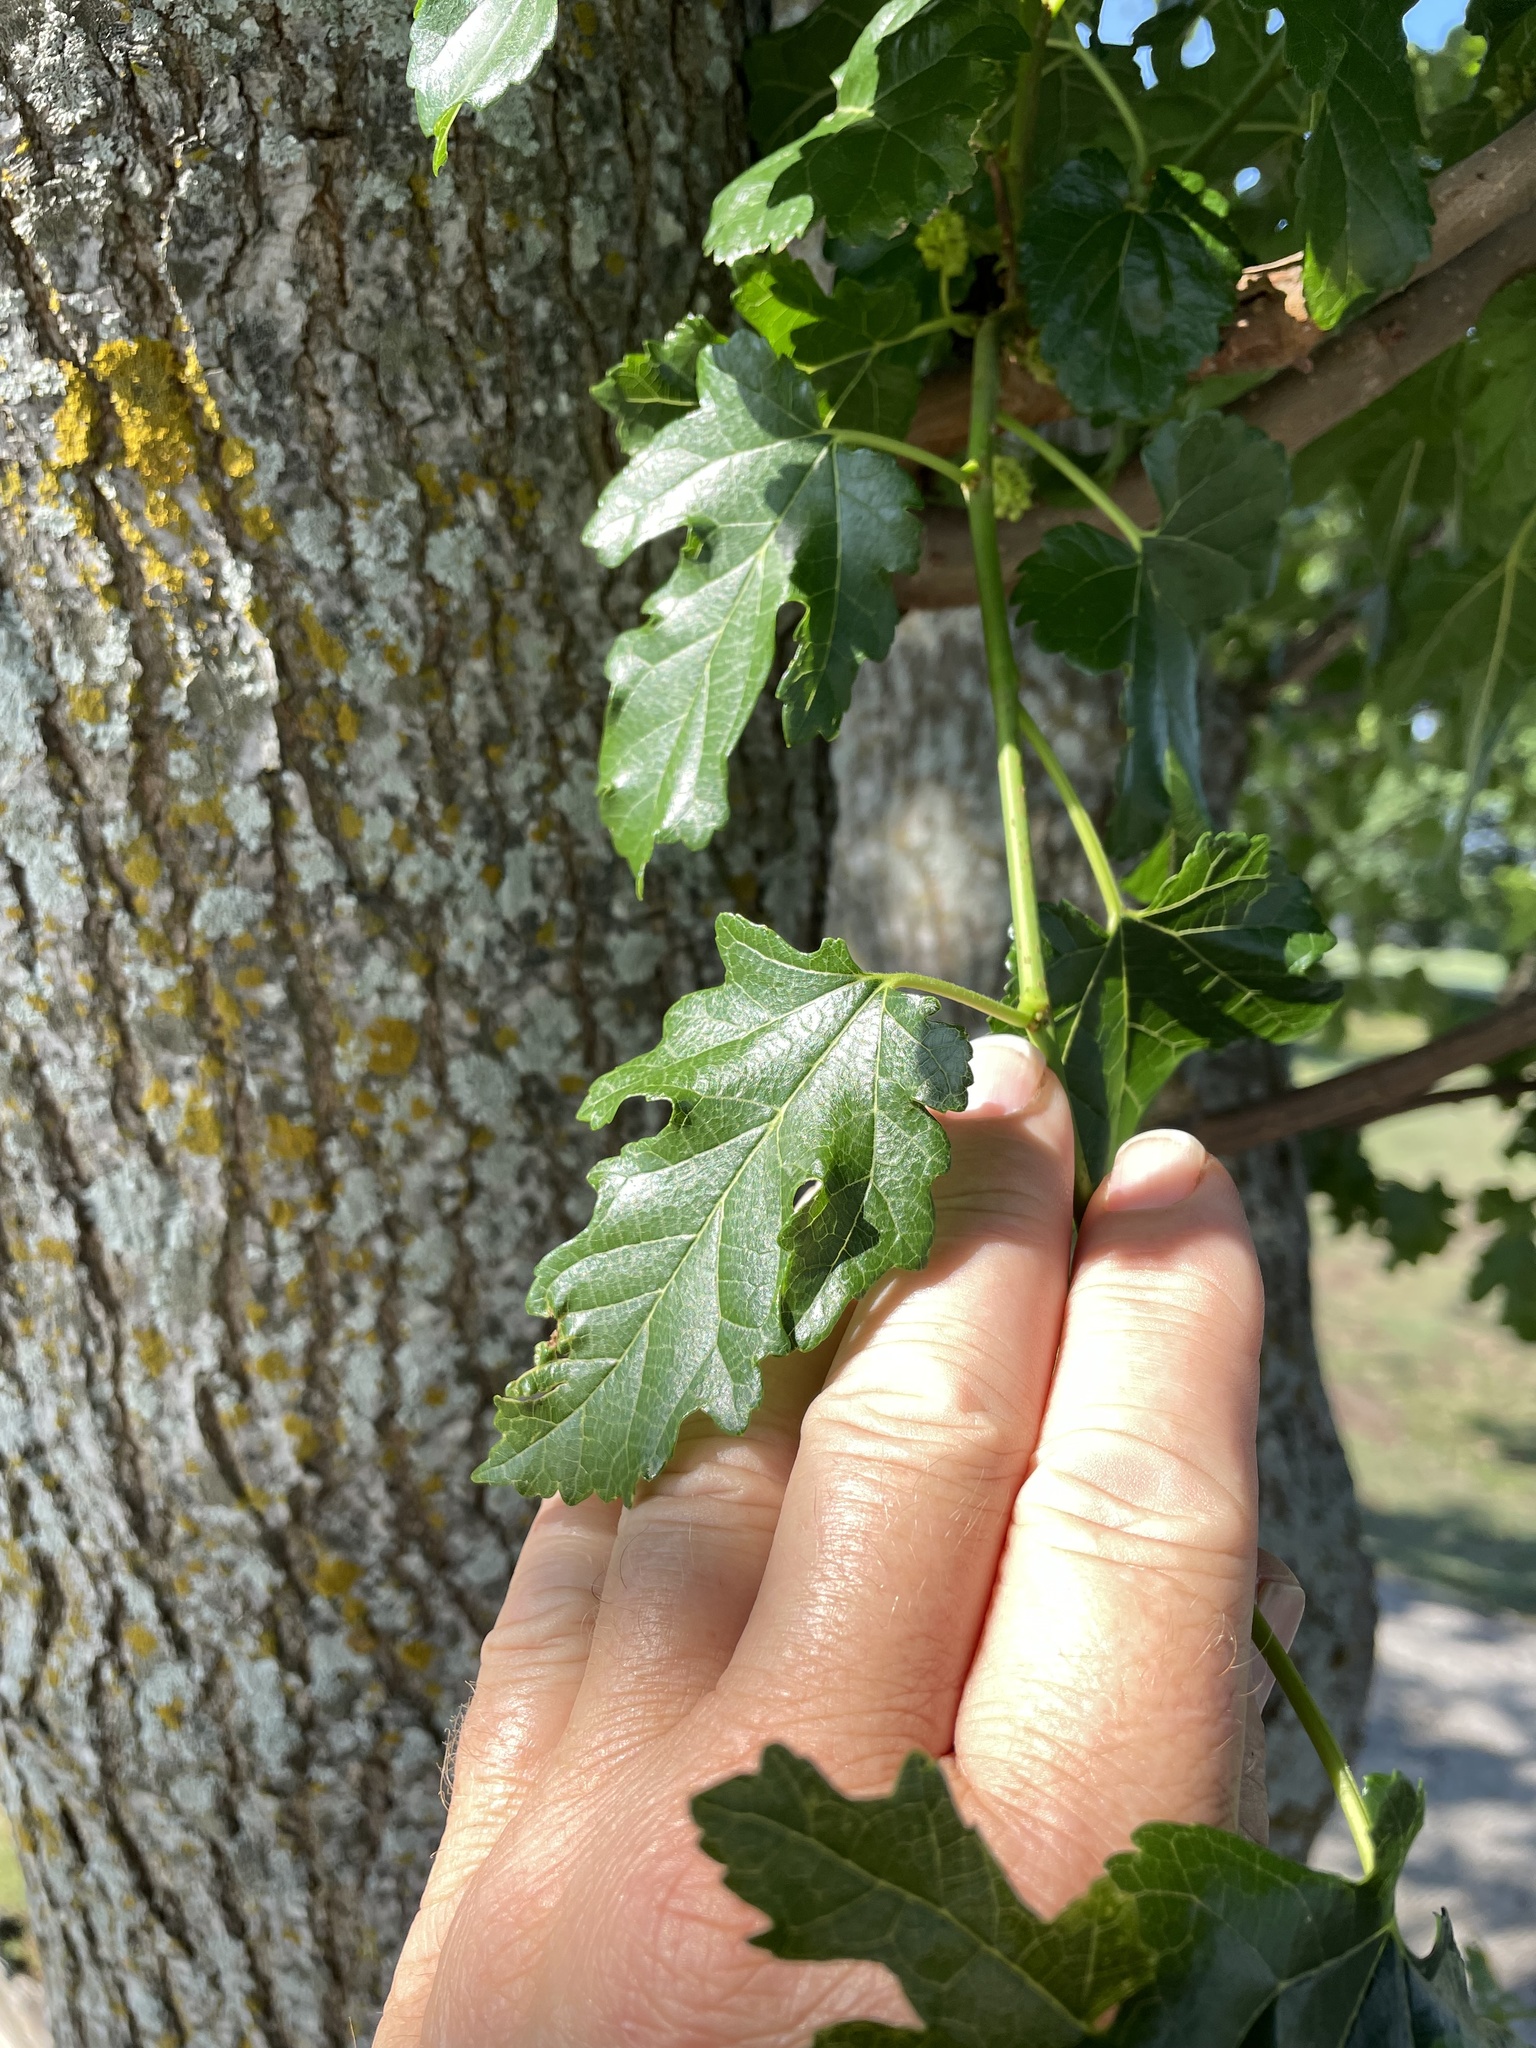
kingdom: Plantae
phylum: Tracheophyta
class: Magnoliopsida
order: Rosales
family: Moraceae
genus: Morus
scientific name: Morus alba
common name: White mulberry
